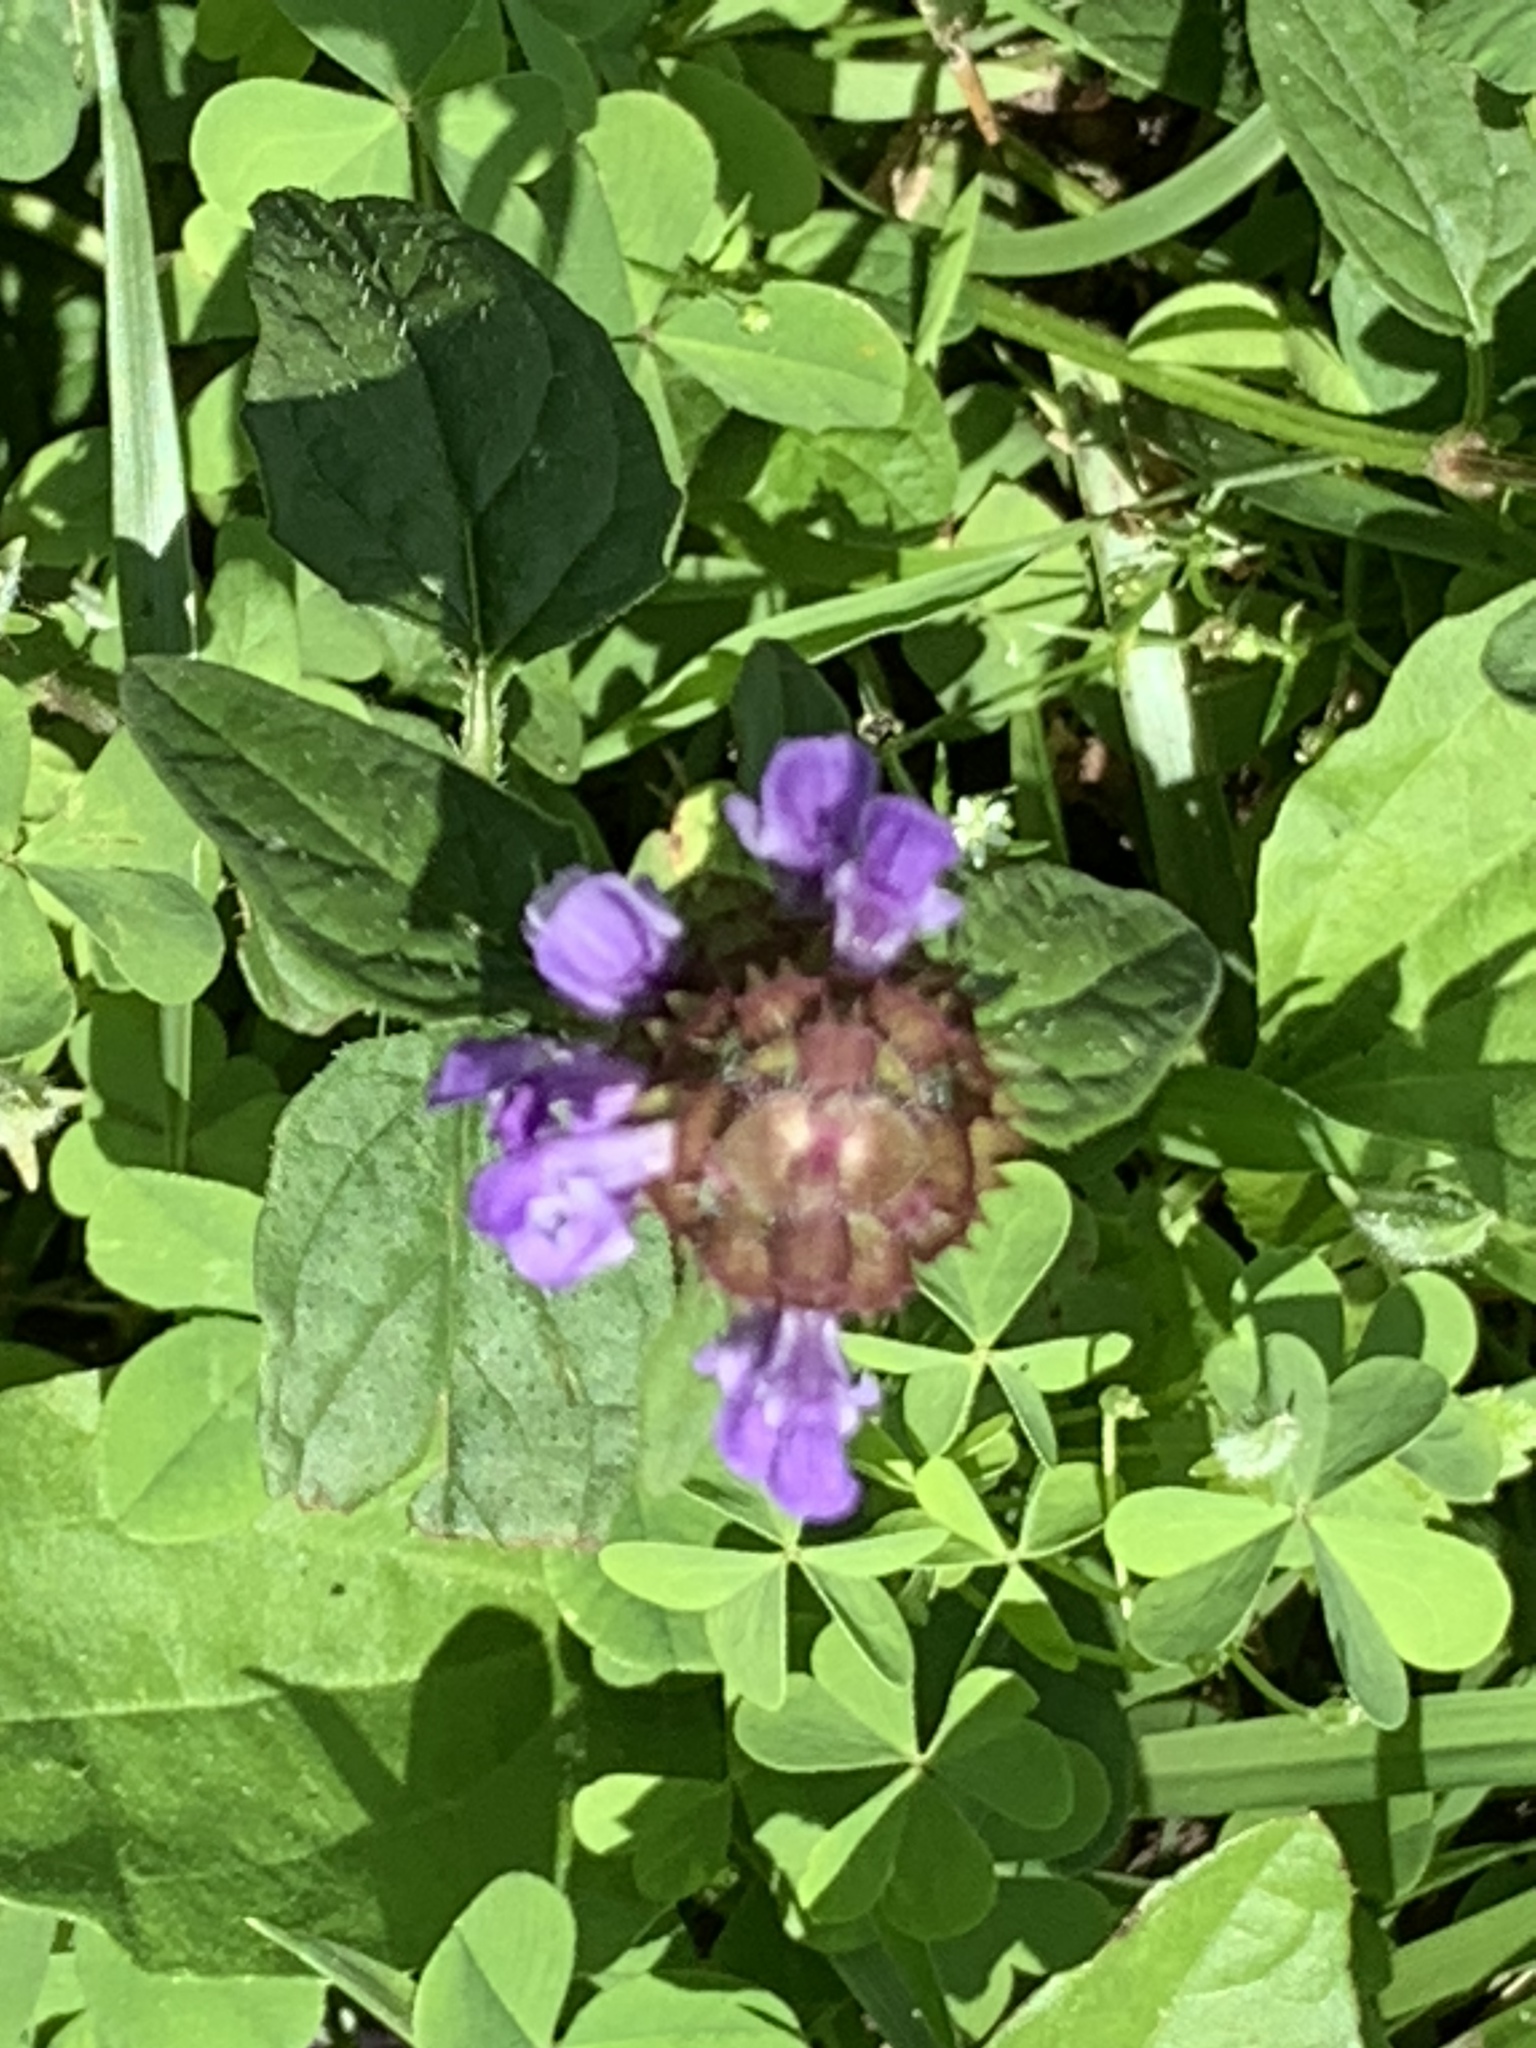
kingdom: Plantae
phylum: Tracheophyta
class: Magnoliopsida
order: Lamiales
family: Lamiaceae
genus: Prunella
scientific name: Prunella vulgaris
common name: Heal-all
